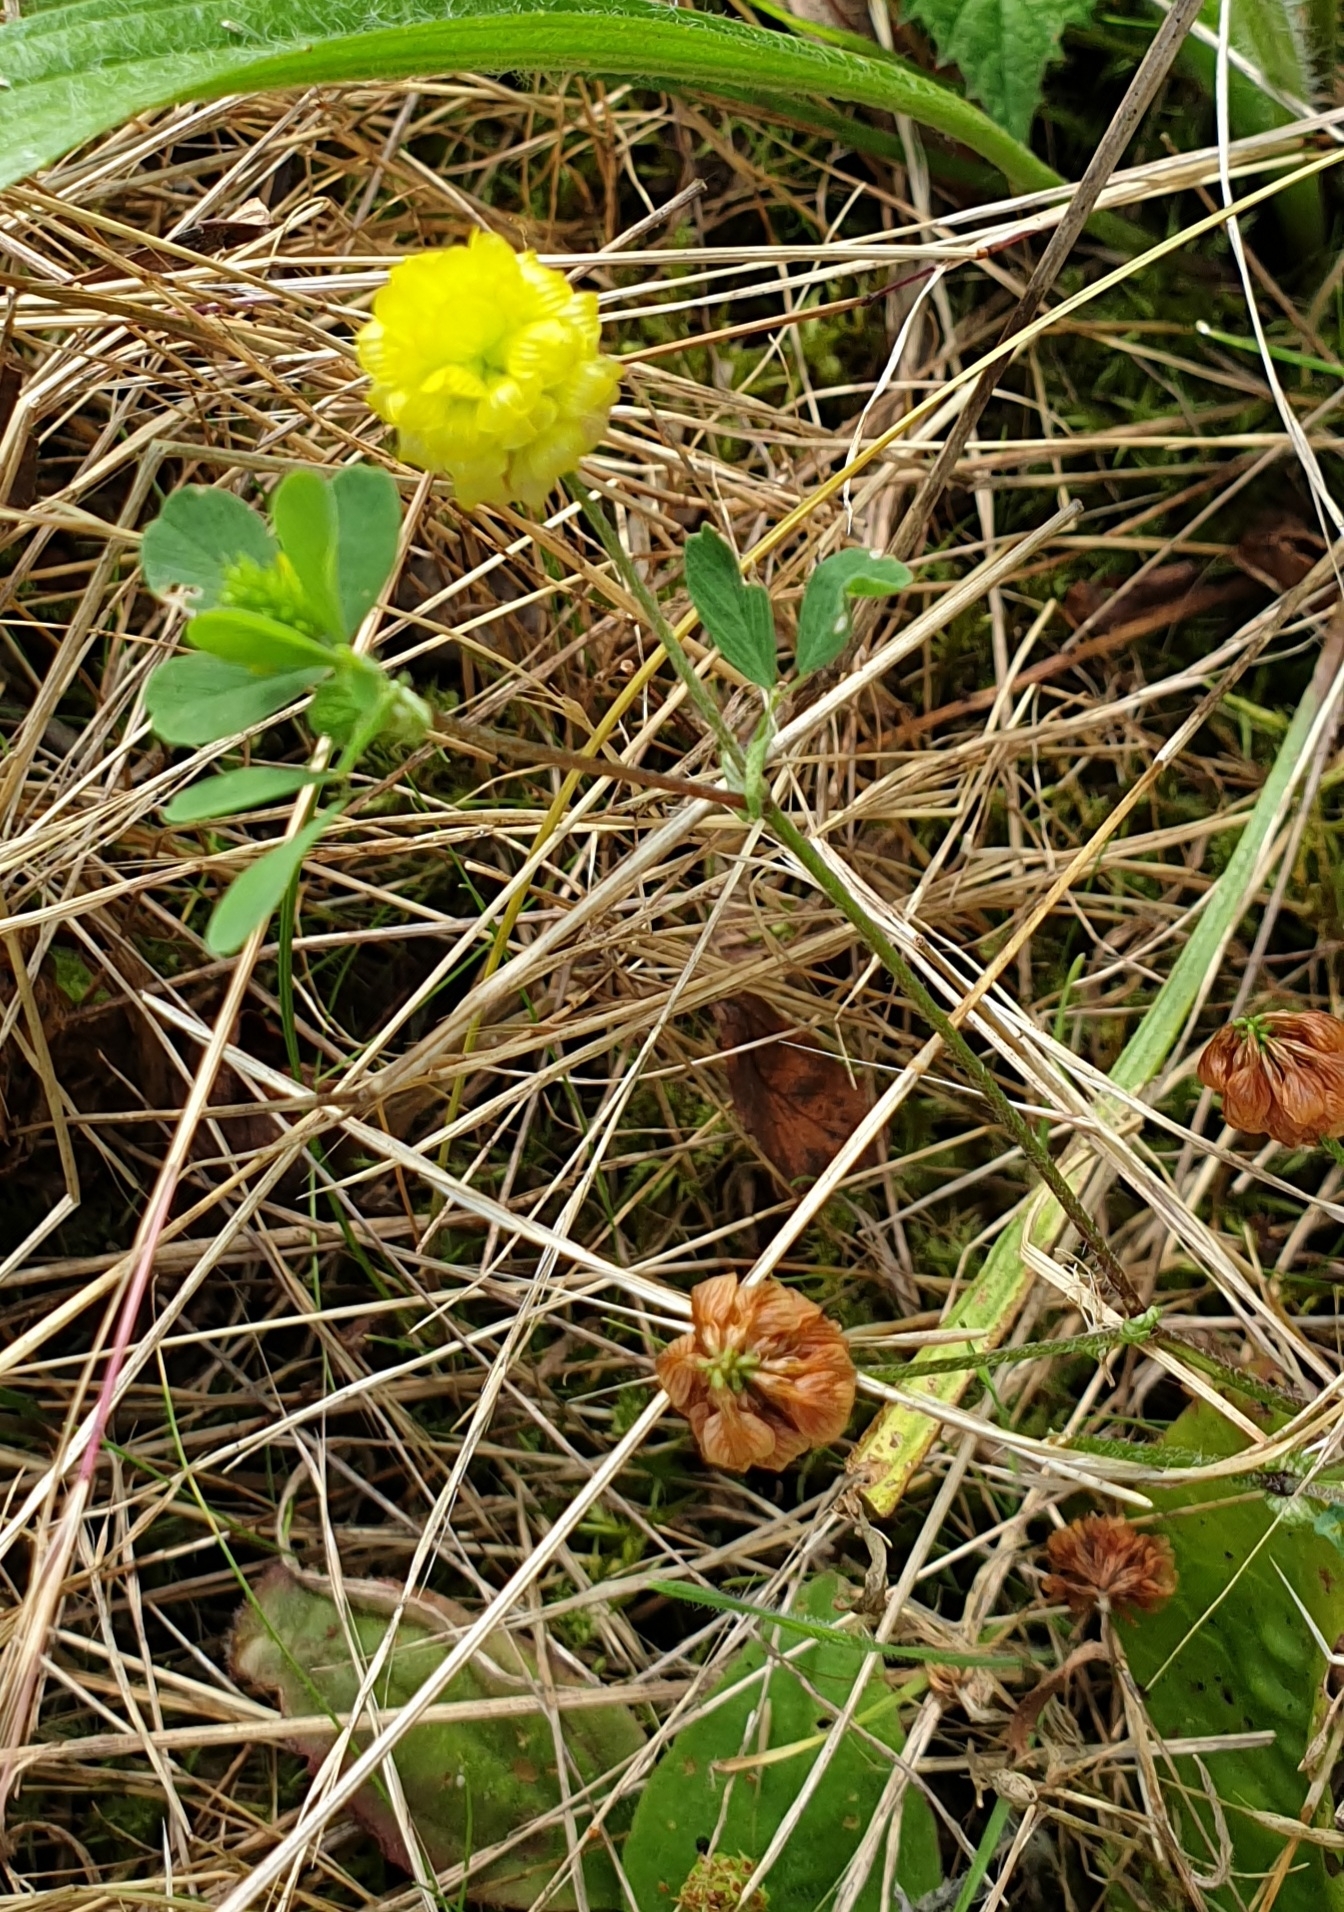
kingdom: Plantae
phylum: Tracheophyta
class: Magnoliopsida
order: Fabales
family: Fabaceae
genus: Trifolium
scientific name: Trifolium campestre
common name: Field clover
